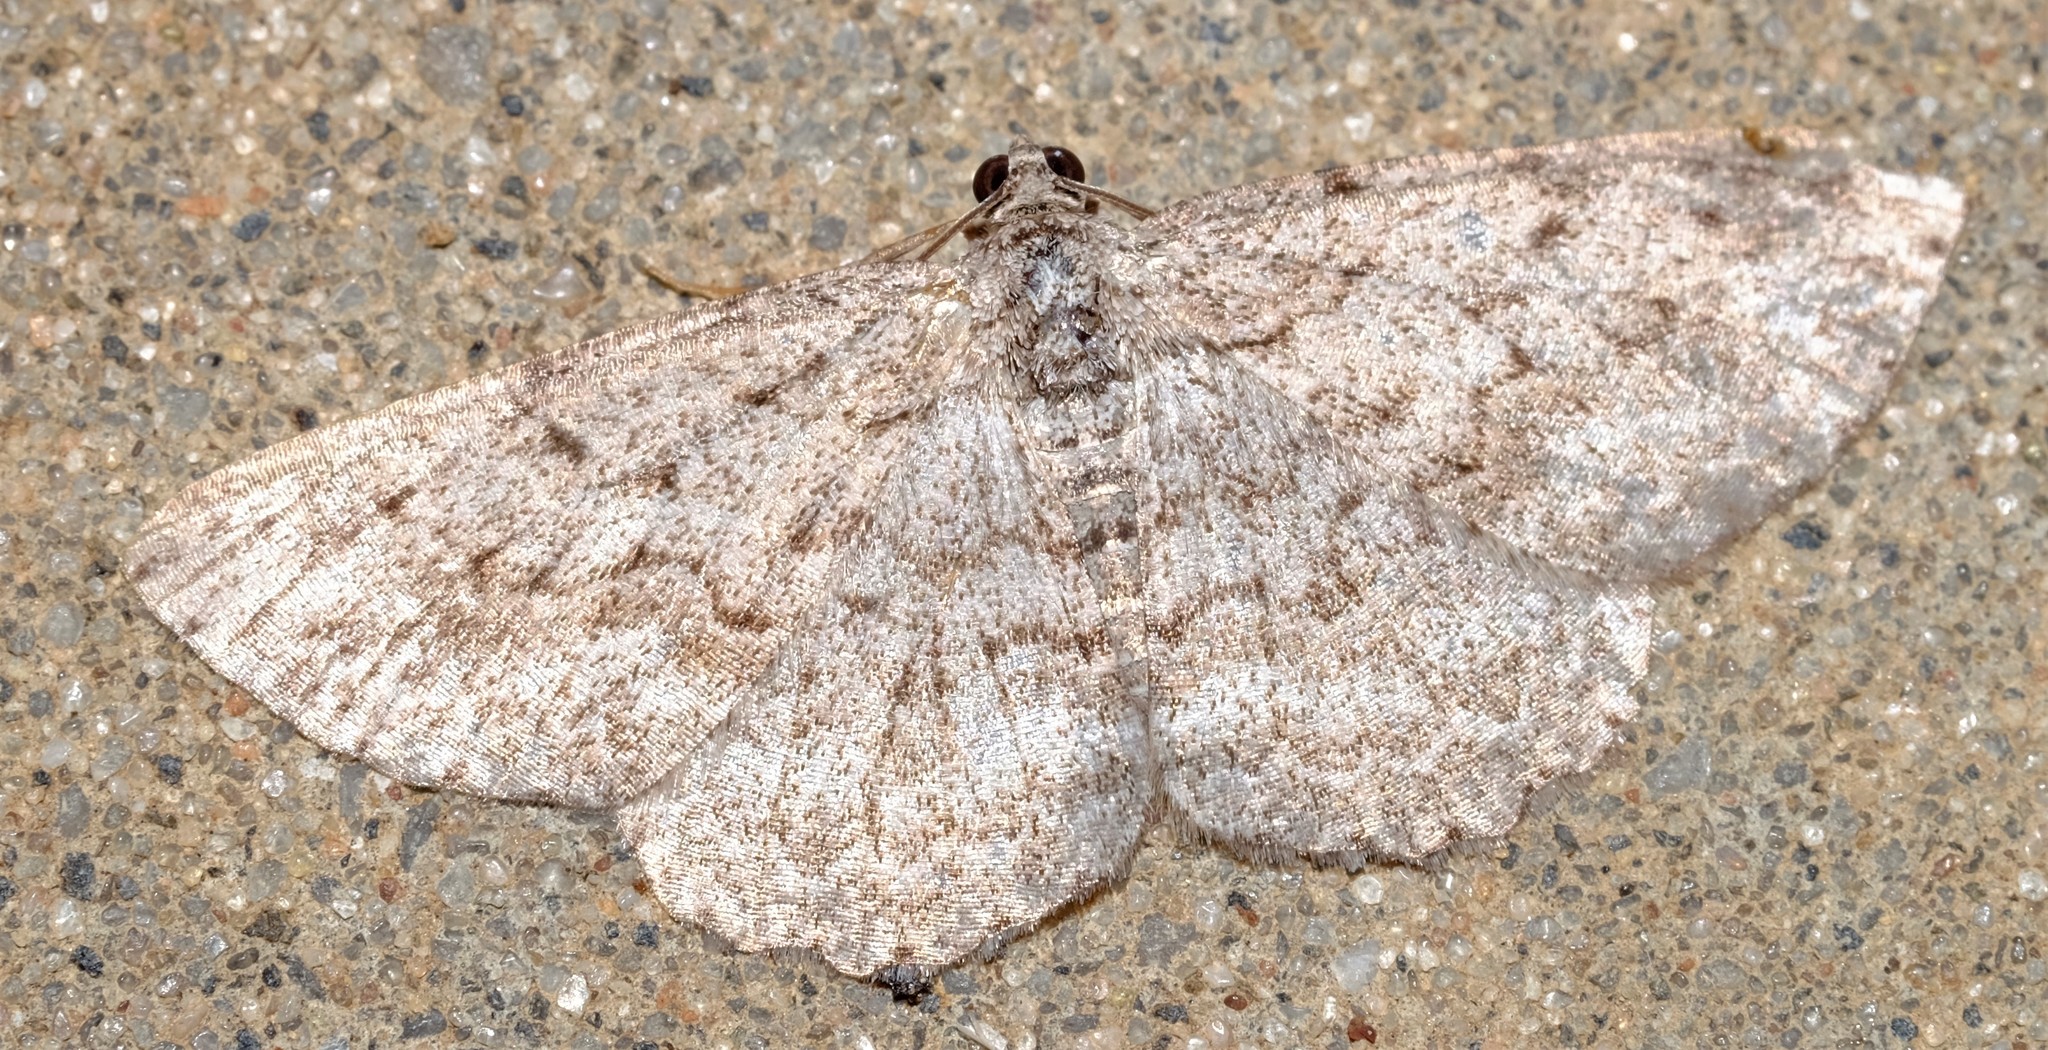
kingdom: Animalia
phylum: Arthropoda
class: Insecta
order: Lepidoptera
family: Geometridae
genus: Psilosticha
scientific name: Psilosticha absorpta
